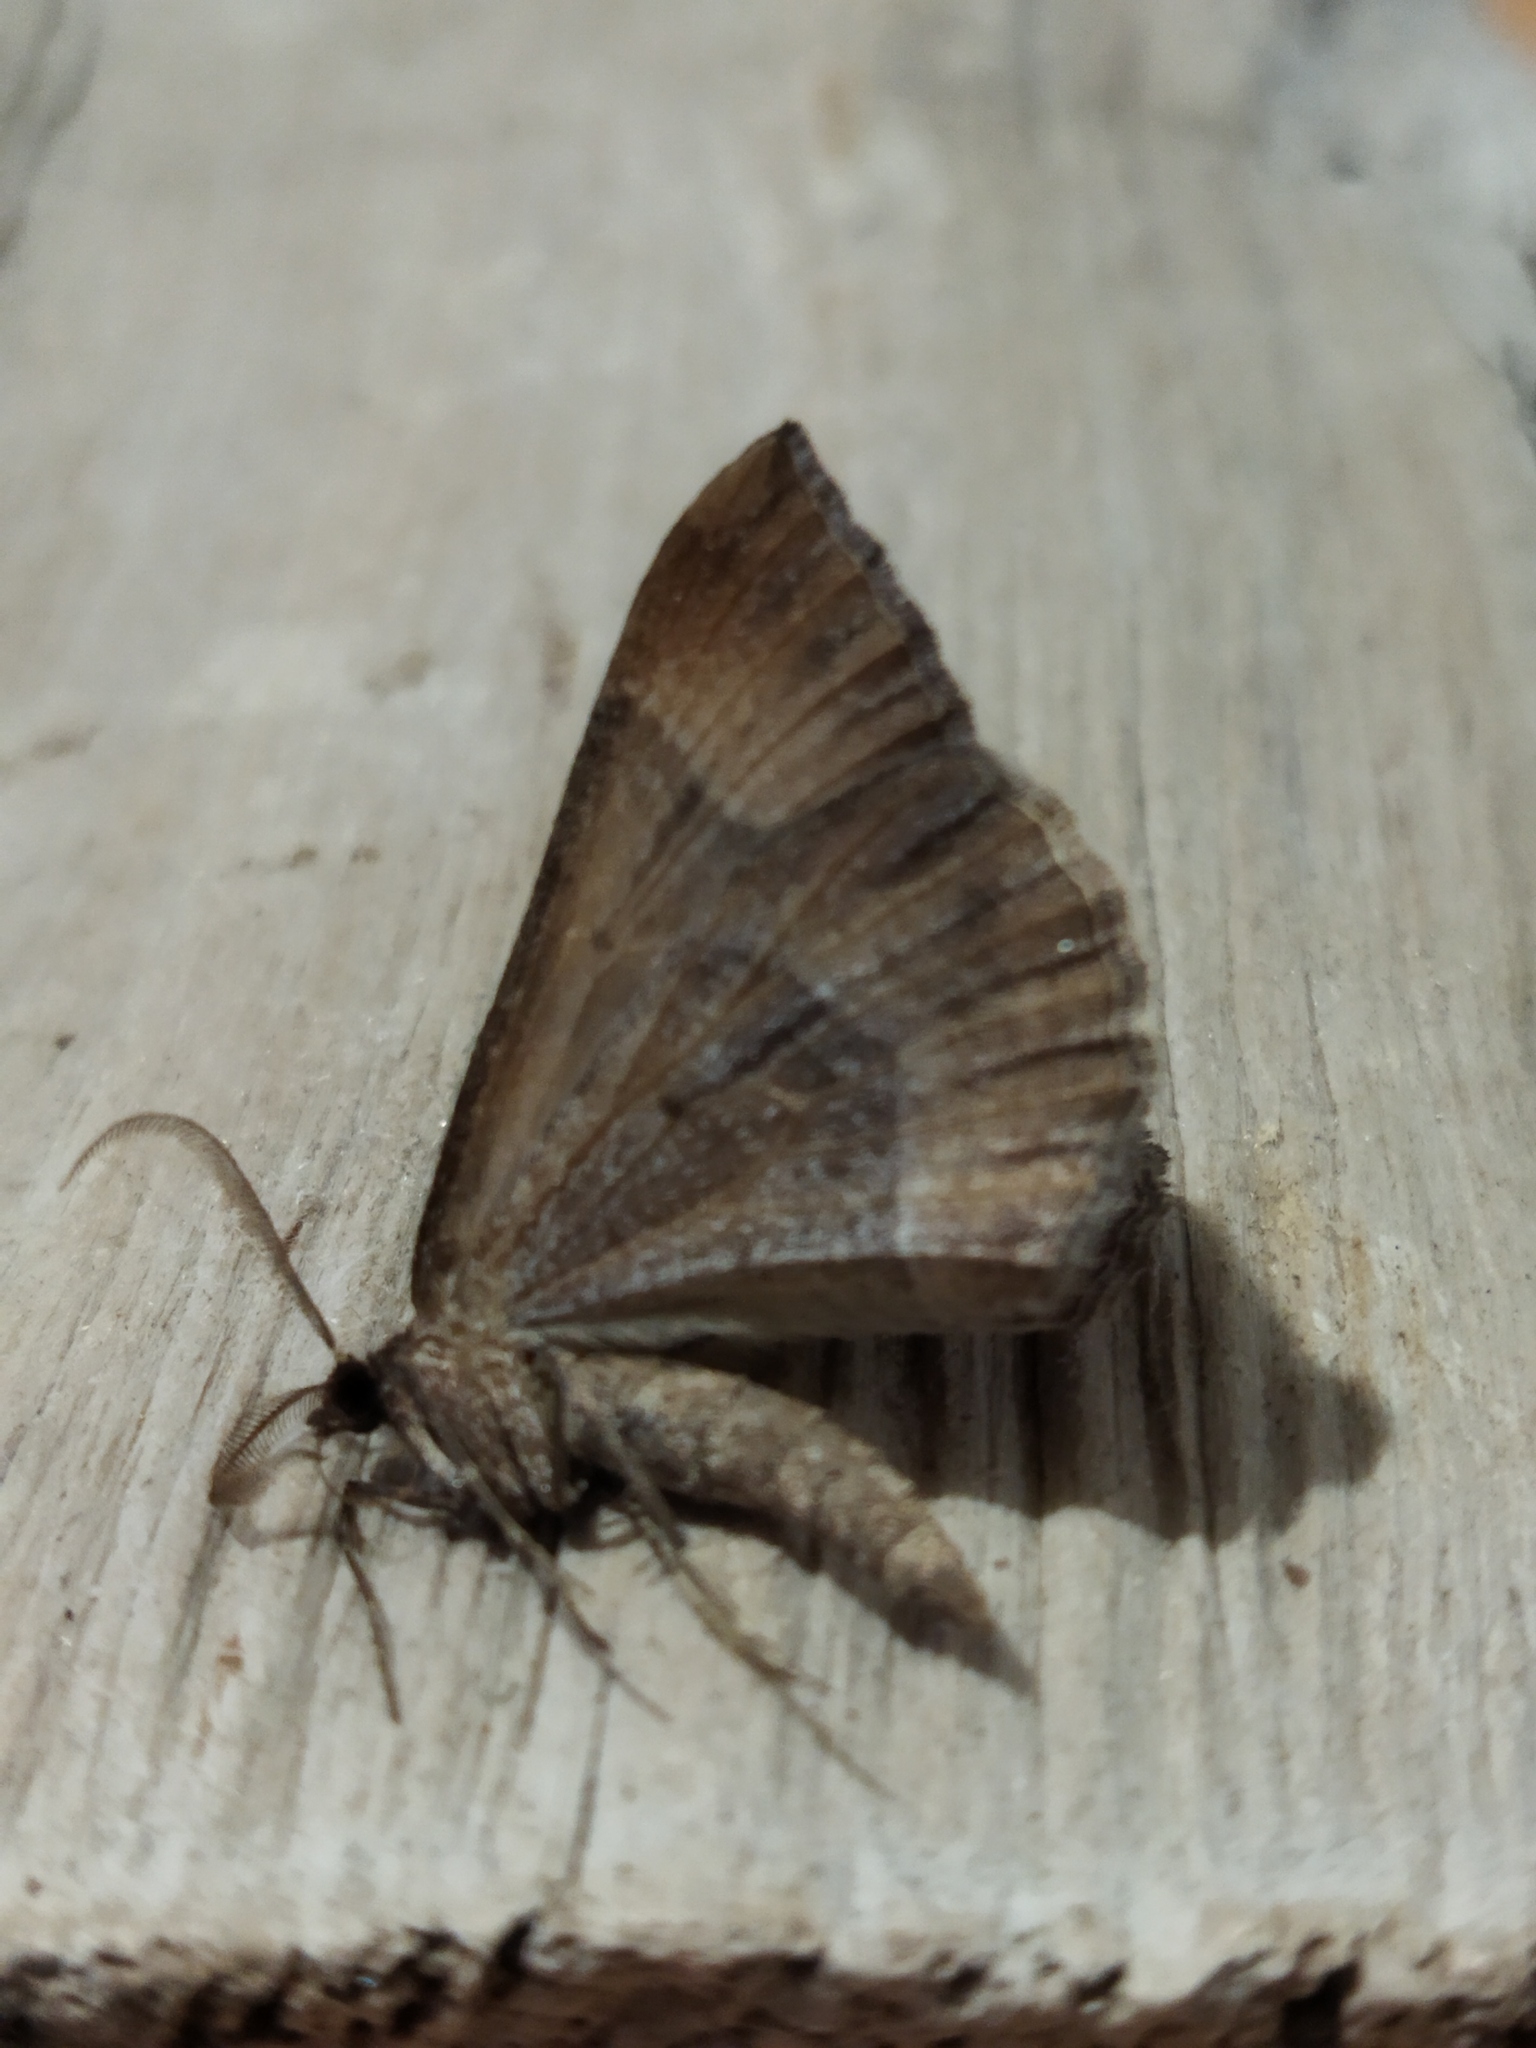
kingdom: Animalia
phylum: Arthropoda
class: Insecta
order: Lepidoptera
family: Geometridae
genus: Larentia
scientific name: Larentia clavaria
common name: Mallow
